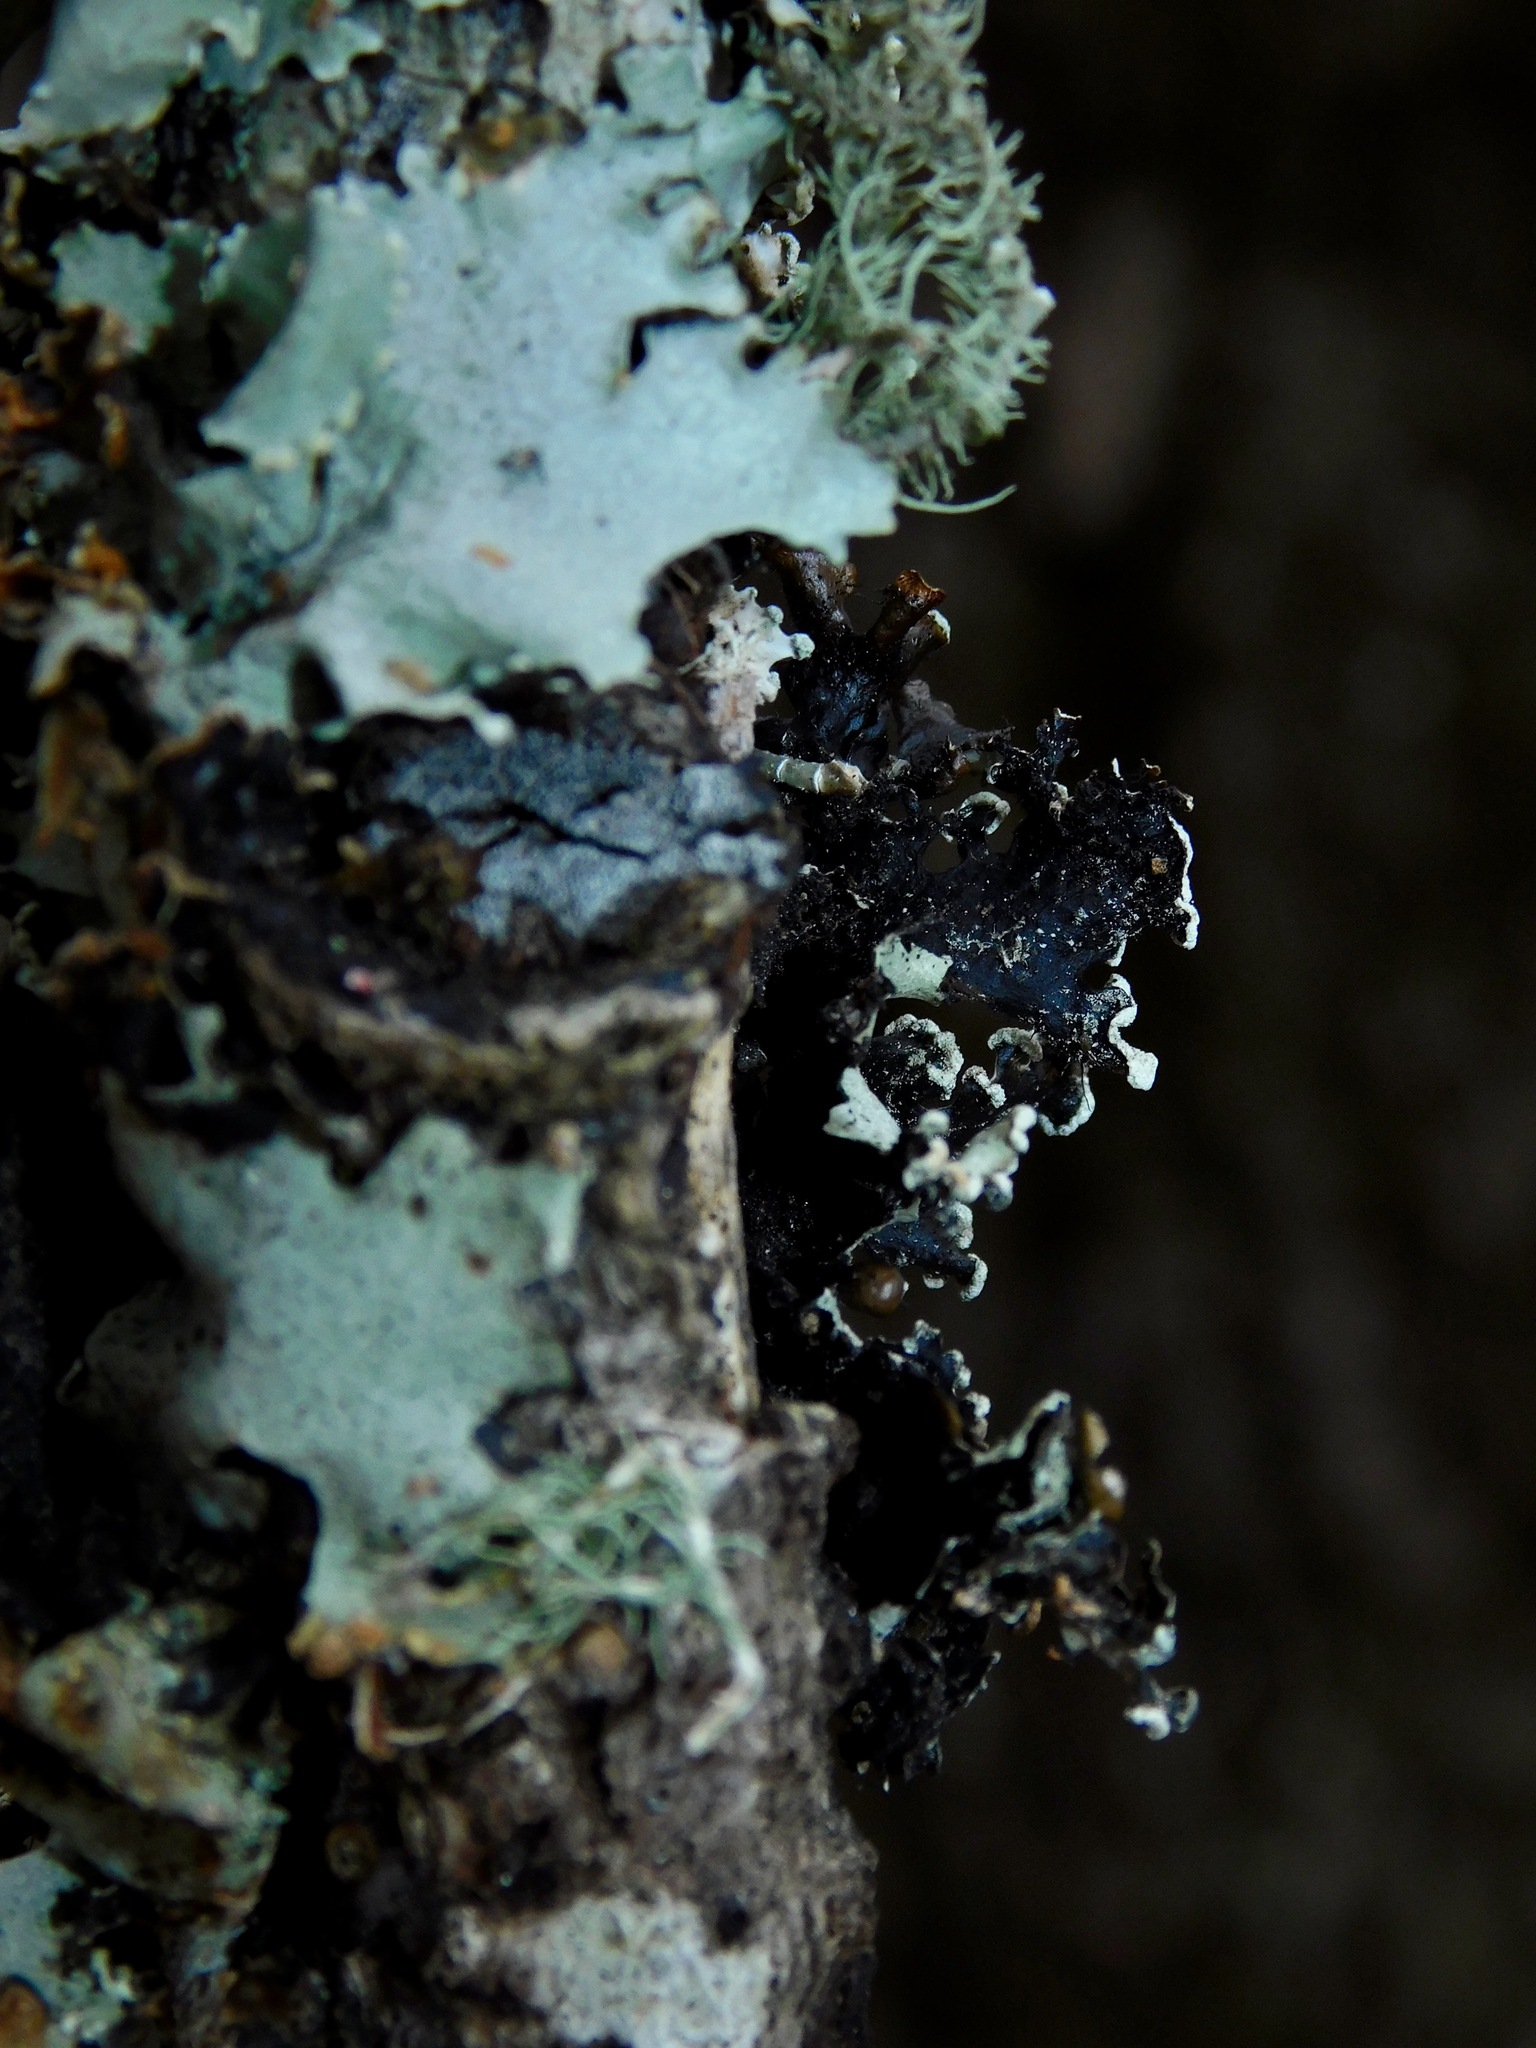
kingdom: Fungi
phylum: Ascomycota
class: Lecanoromycetes
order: Lecanorales
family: Parmeliaceae
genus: Parmotrema
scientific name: Parmotrema reticulatum
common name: Black sheet lichen
